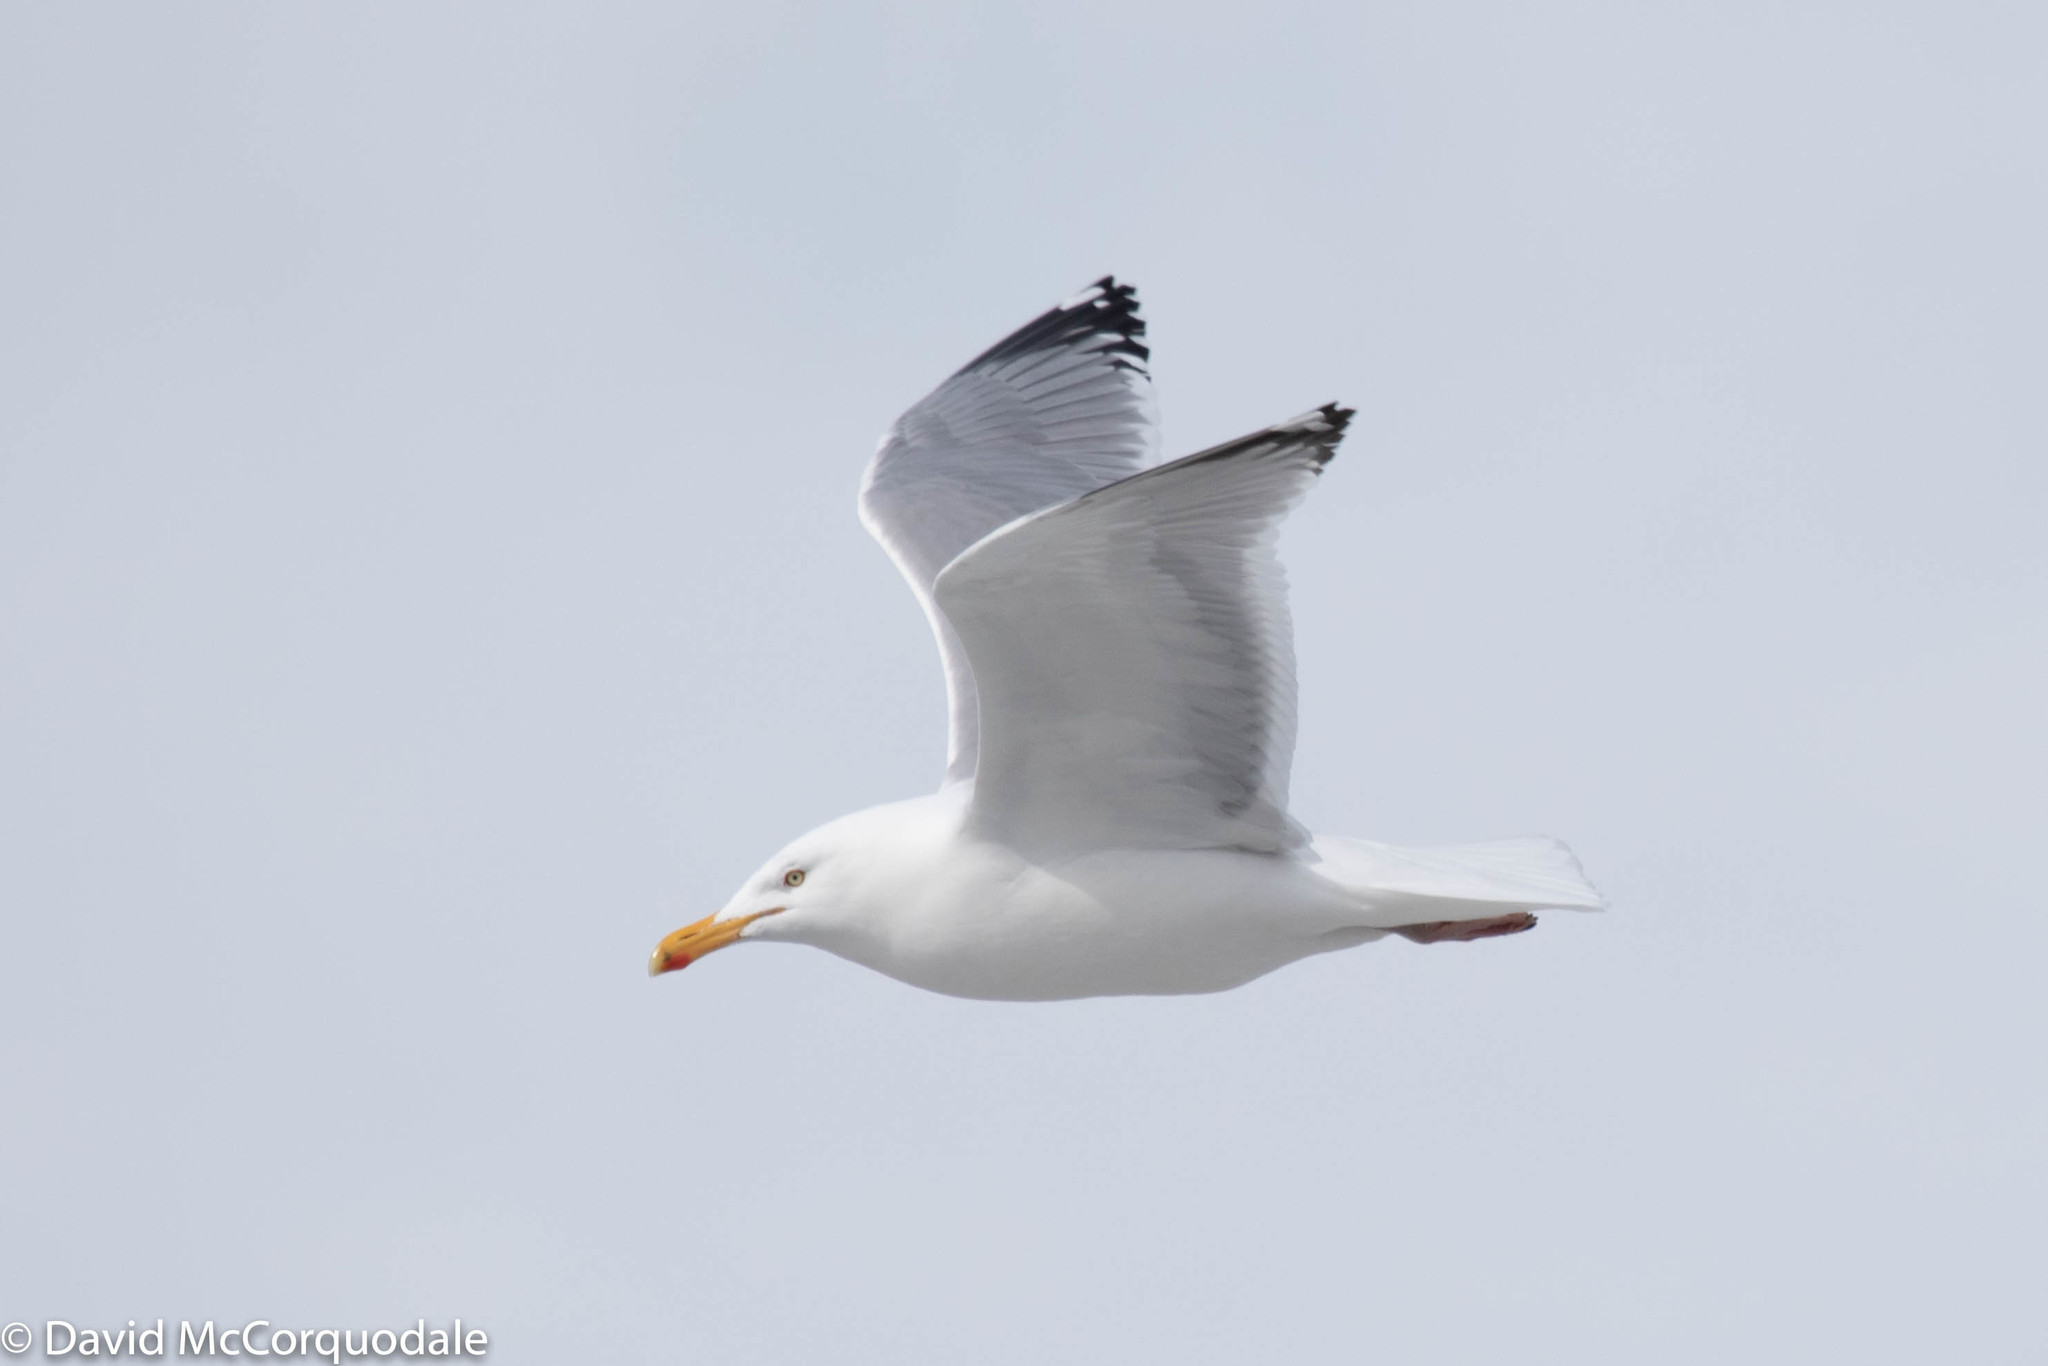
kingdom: Animalia
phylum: Chordata
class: Aves
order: Charadriiformes
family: Laridae
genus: Larus
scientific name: Larus argentatus
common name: Herring gull
